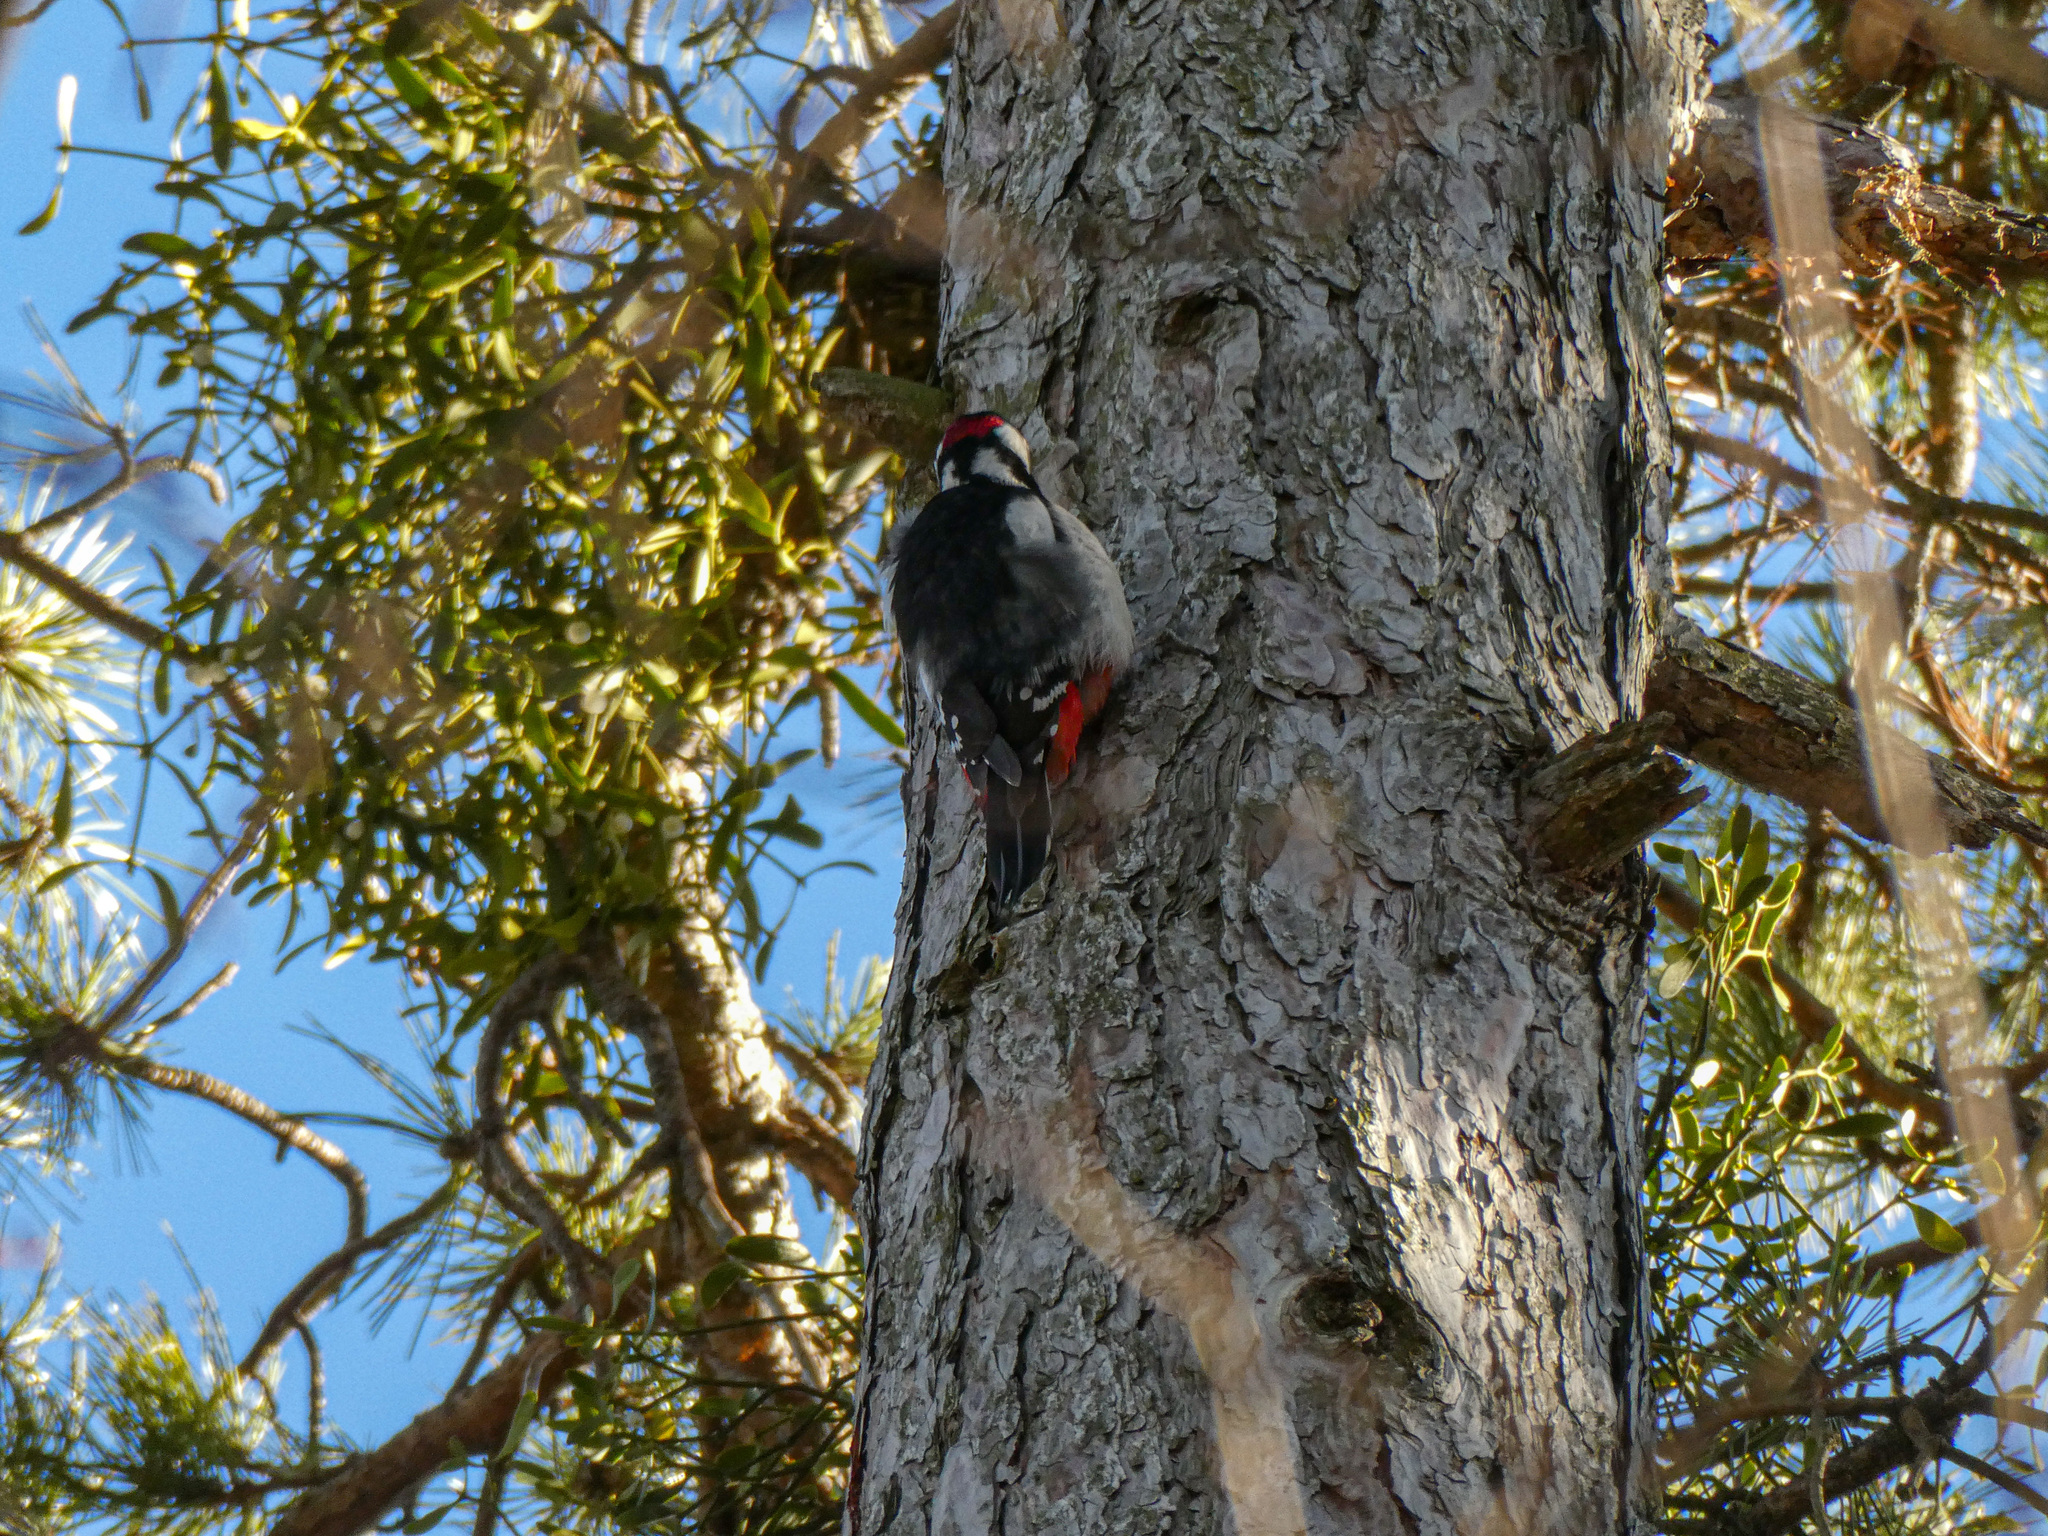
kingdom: Animalia
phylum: Chordata
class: Aves
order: Piciformes
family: Picidae
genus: Dendrocopos
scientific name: Dendrocopos major
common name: Great spotted woodpecker
